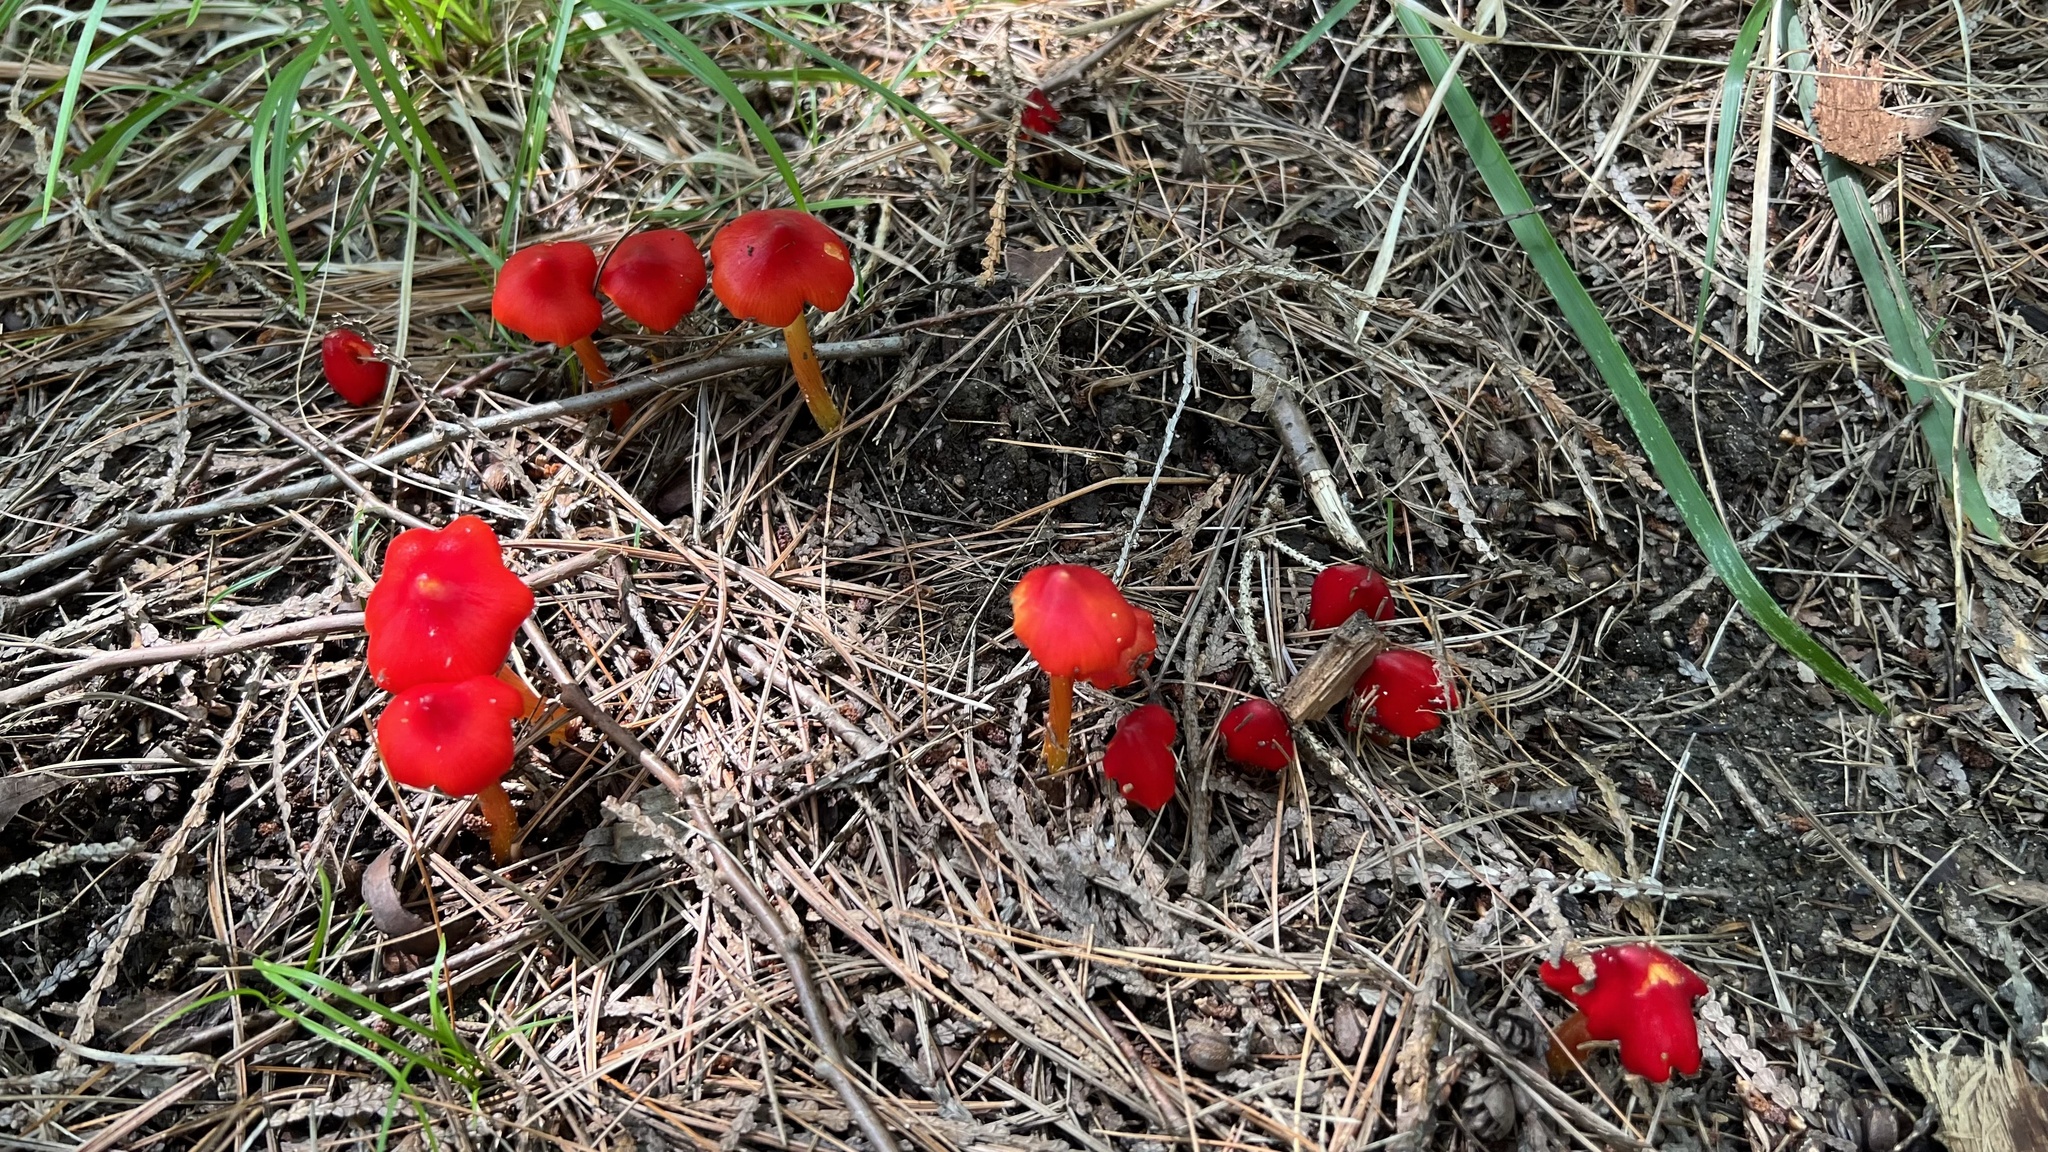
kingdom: Fungi
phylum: Basidiomycota
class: Agaricomycetes
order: Agaricales
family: Hygrophoraceae
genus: Hygrocybe
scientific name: Hygrocybe cuspidata
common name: Candy apple waxy cap
